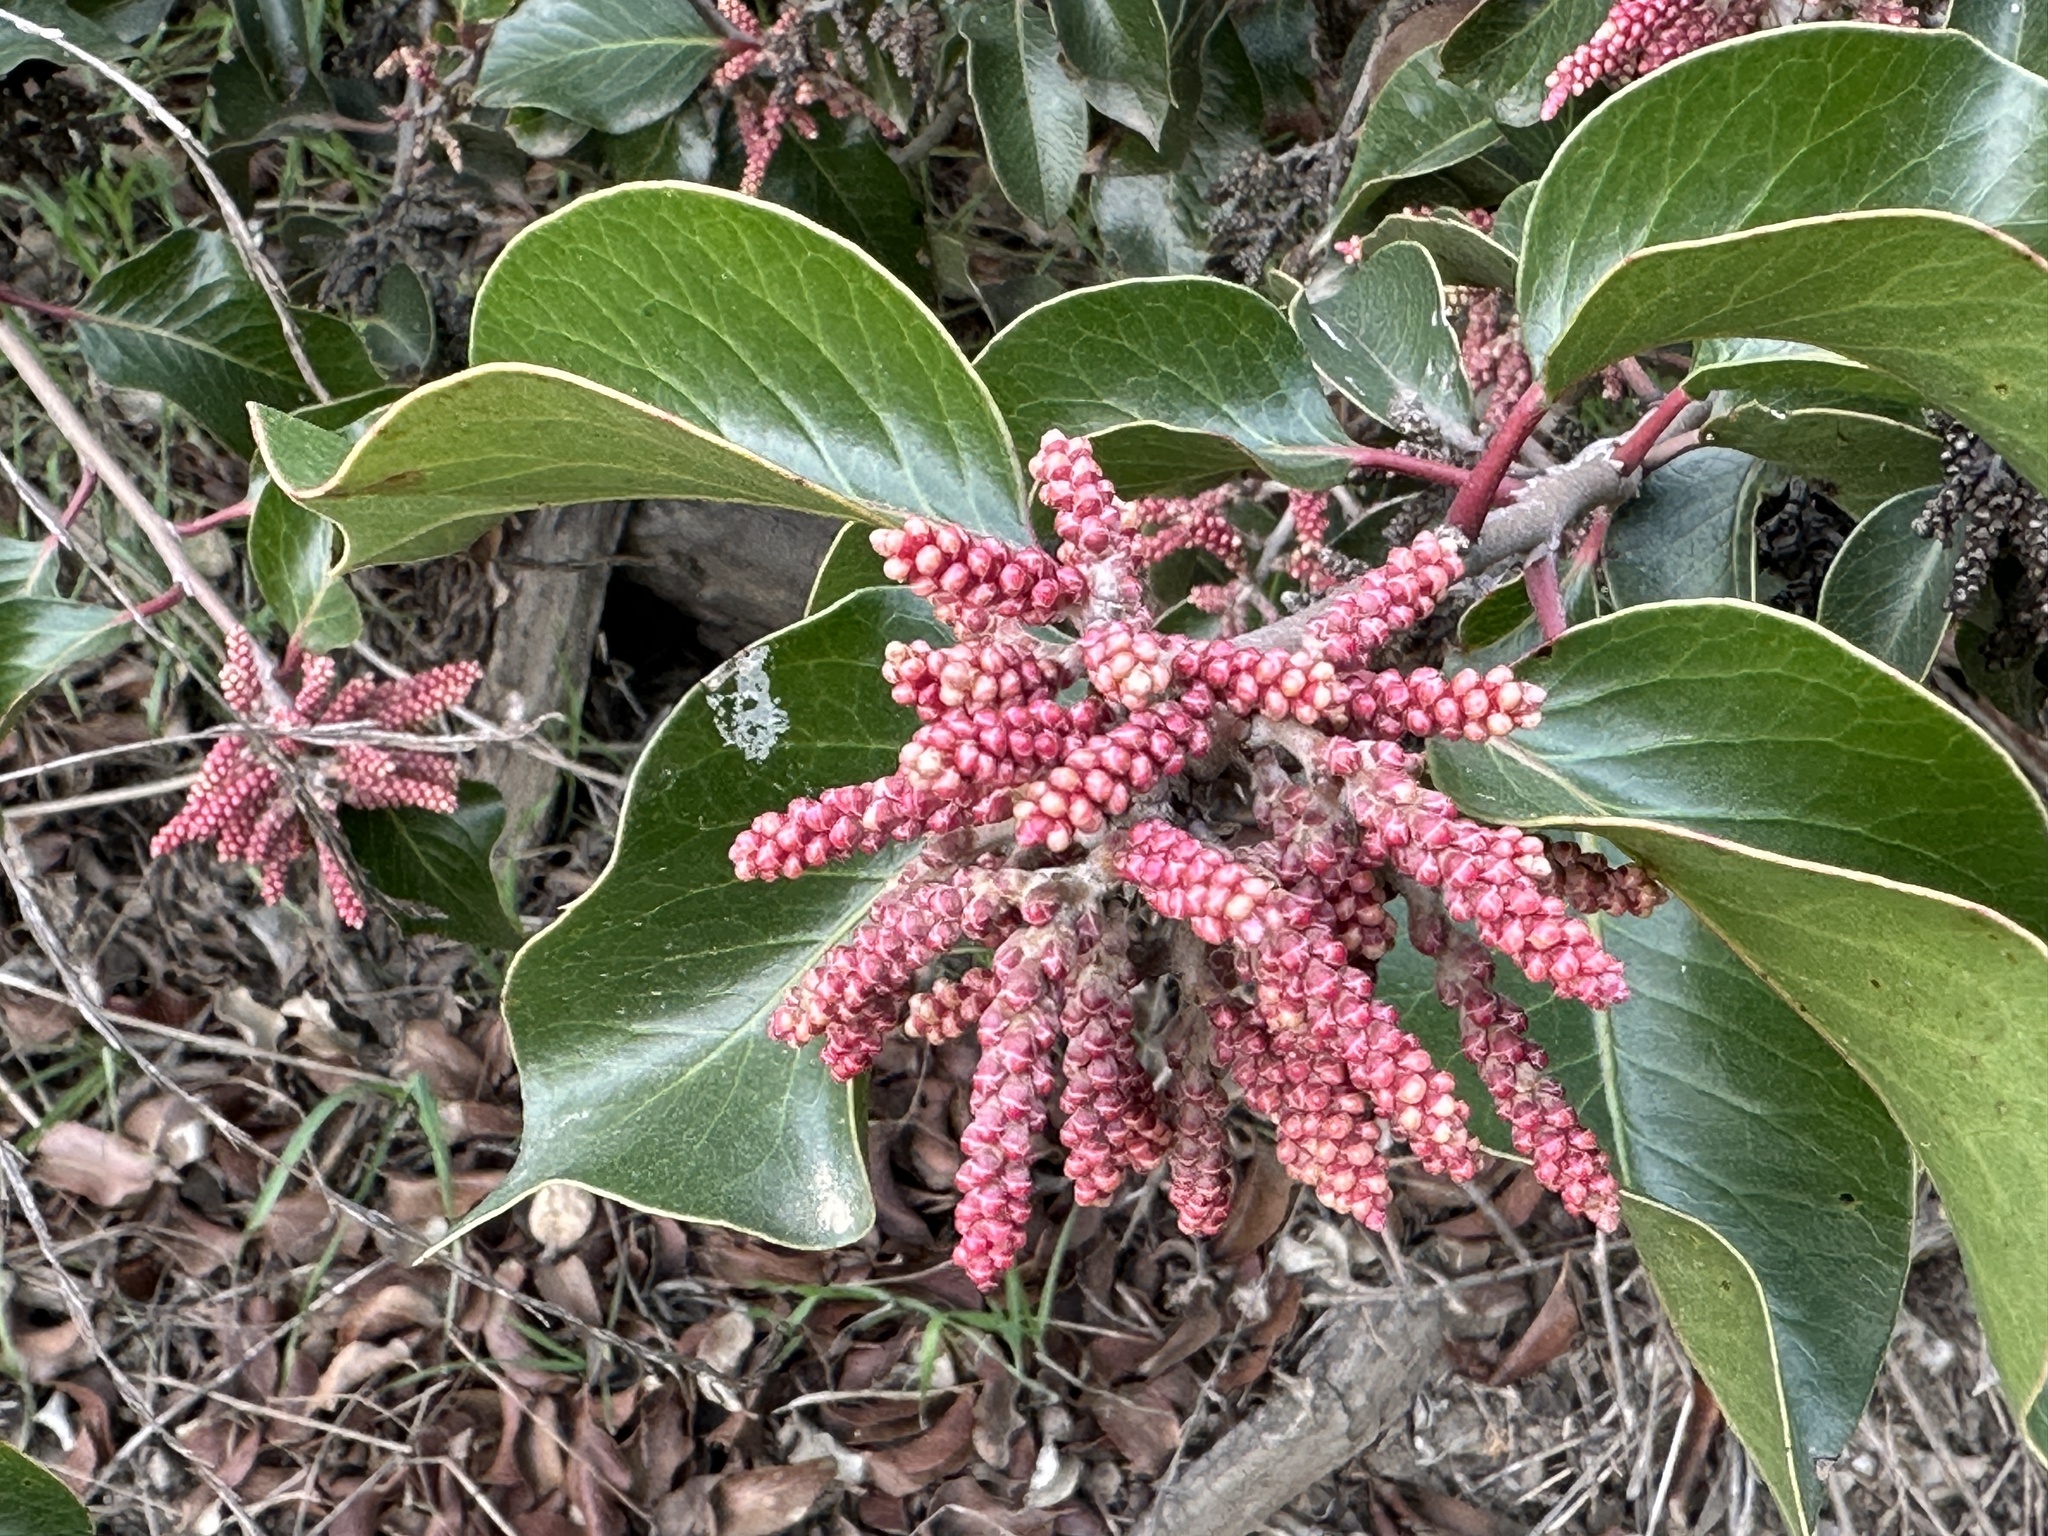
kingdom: Plantae
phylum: Tracheophyta
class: Magnoliopsida
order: Sapindales
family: Anacardiaceae
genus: Rhus
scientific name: Rhus ovata
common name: Sugar sumac
